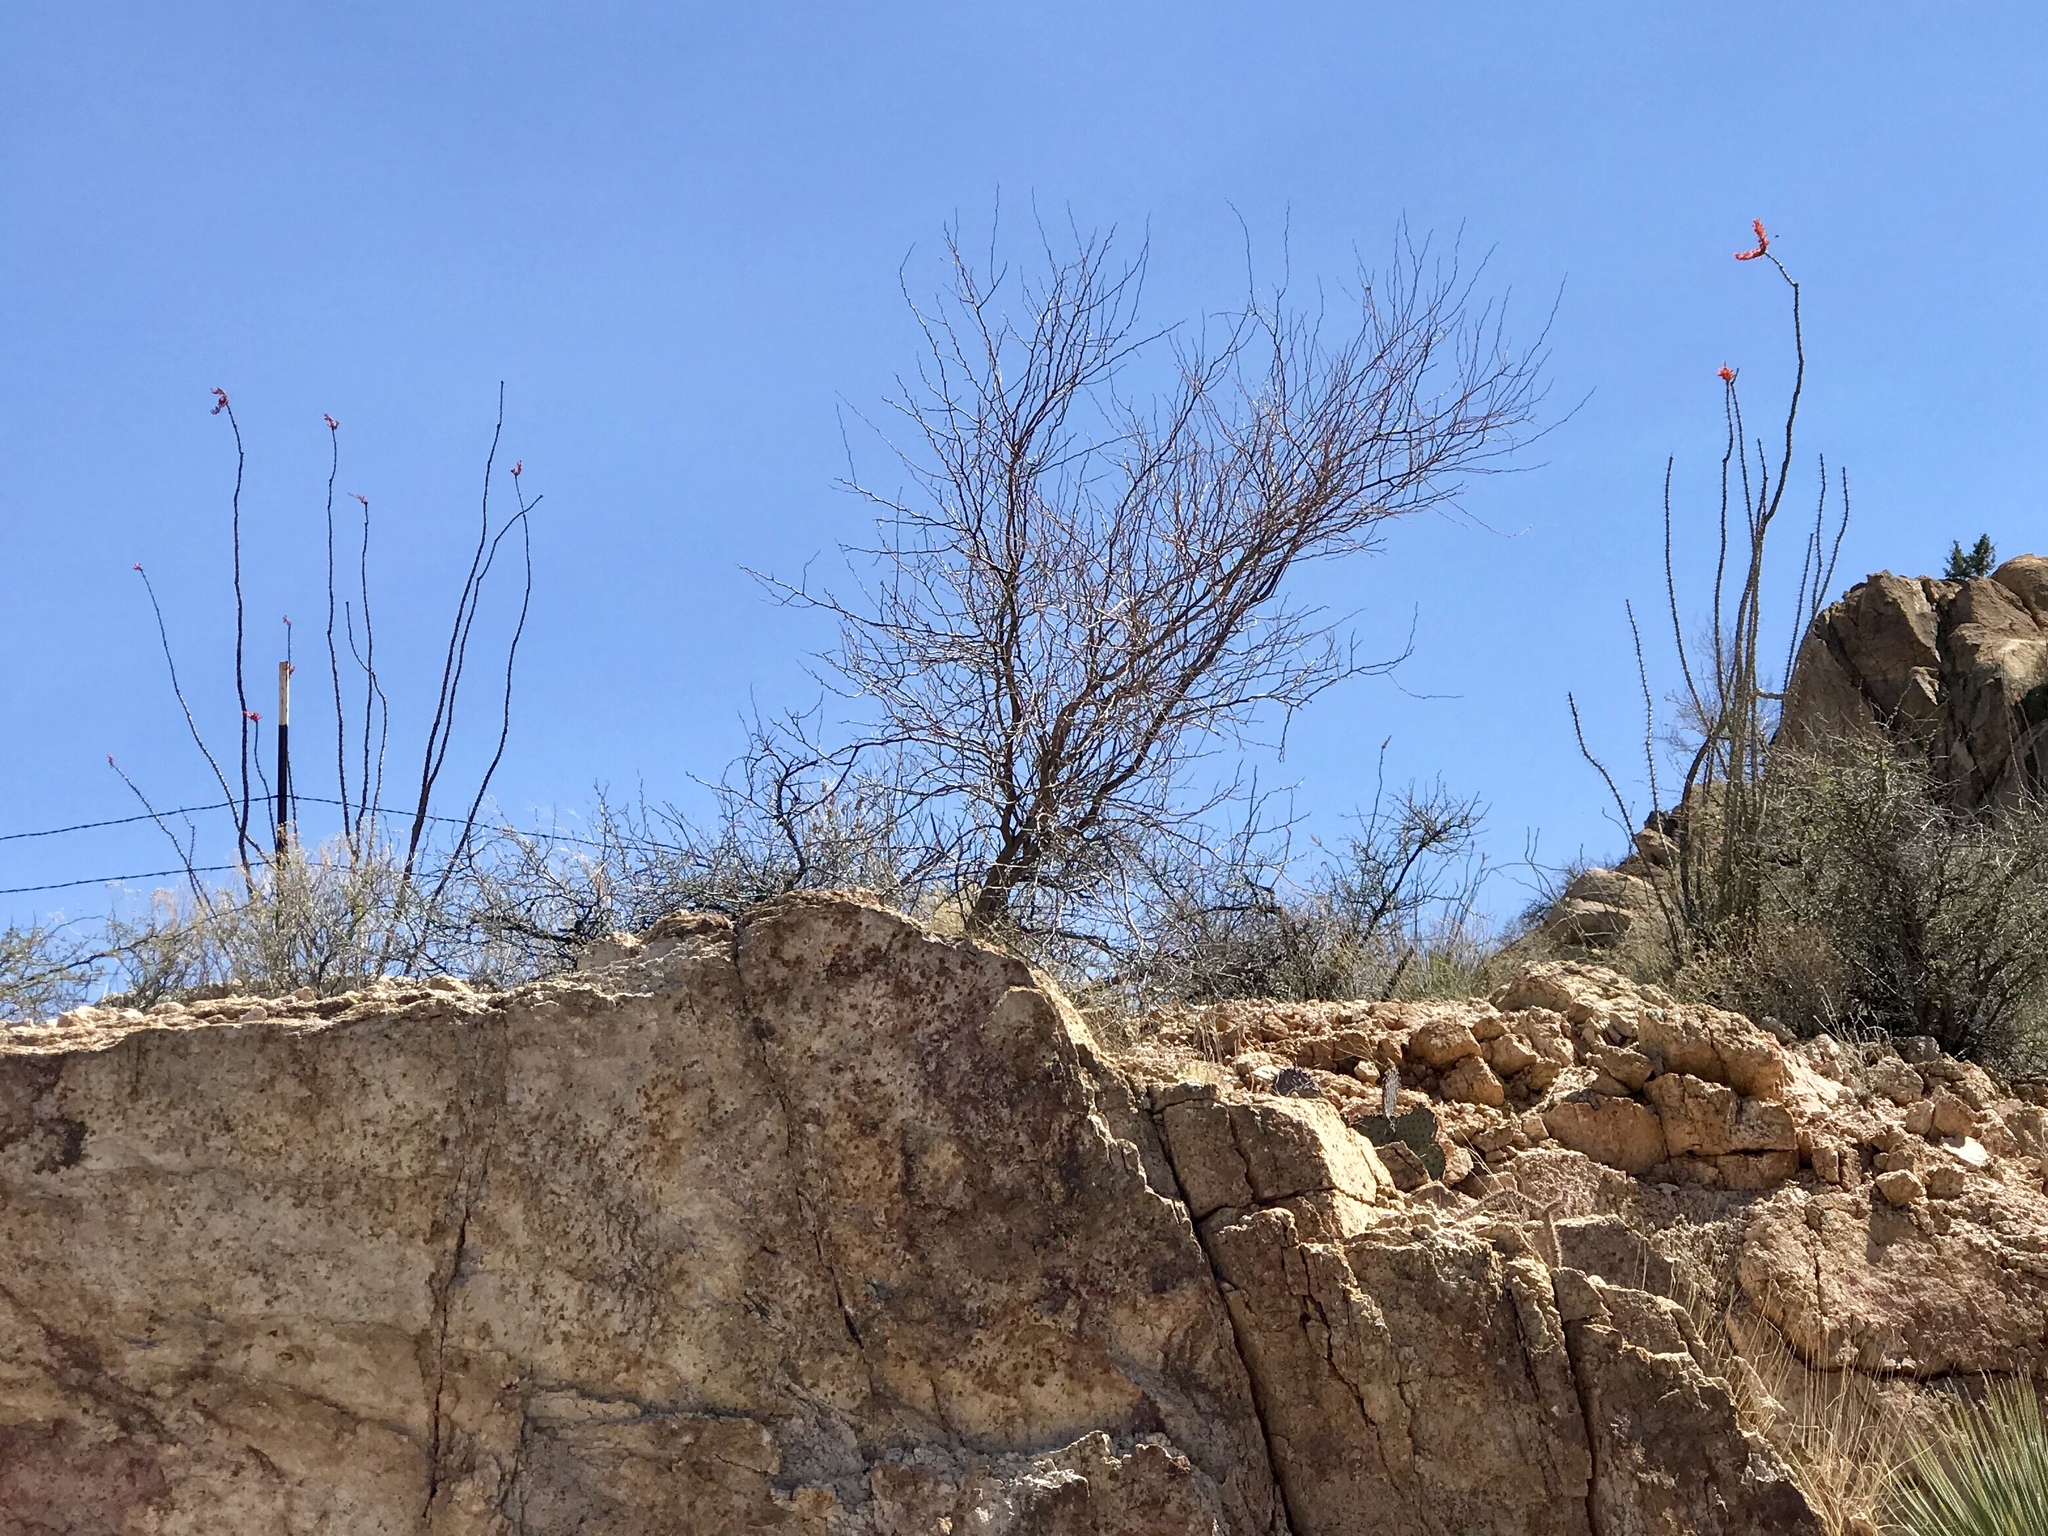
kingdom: Plantae
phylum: Tracheophyta
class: Magnoliopsida
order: Ericales
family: Fouquieriaceae
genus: Fouquieria
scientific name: Fouquieria splendens
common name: Vine-cactus
